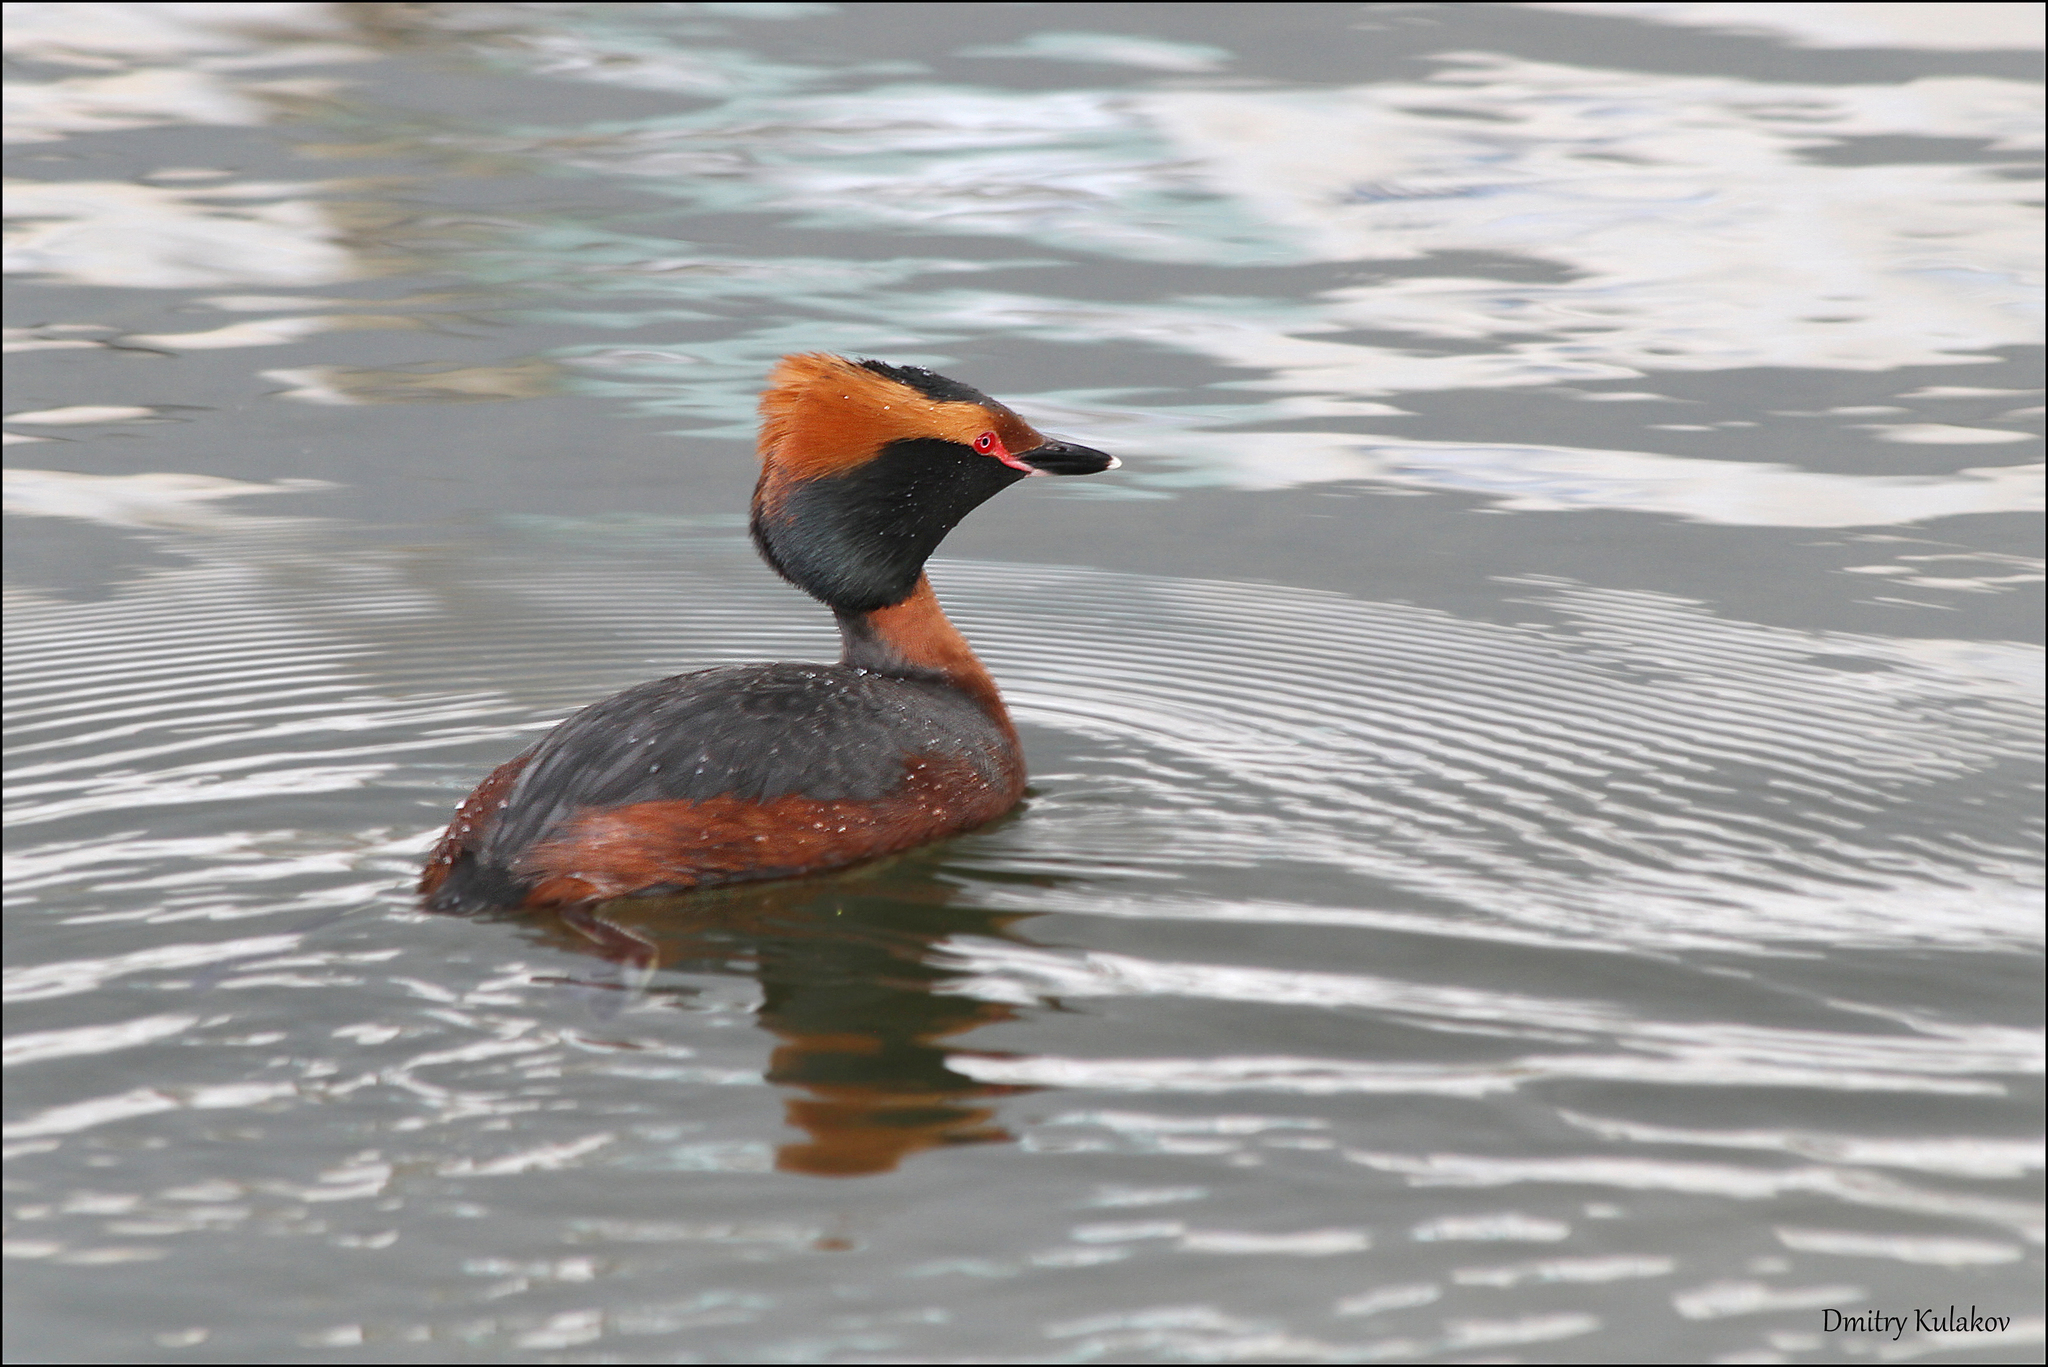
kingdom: Animalia
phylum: Chordata
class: Aves
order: Podicipediformes
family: Podicipedidae
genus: Podiceps
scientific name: Podiceps auritus
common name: Horned grebe
